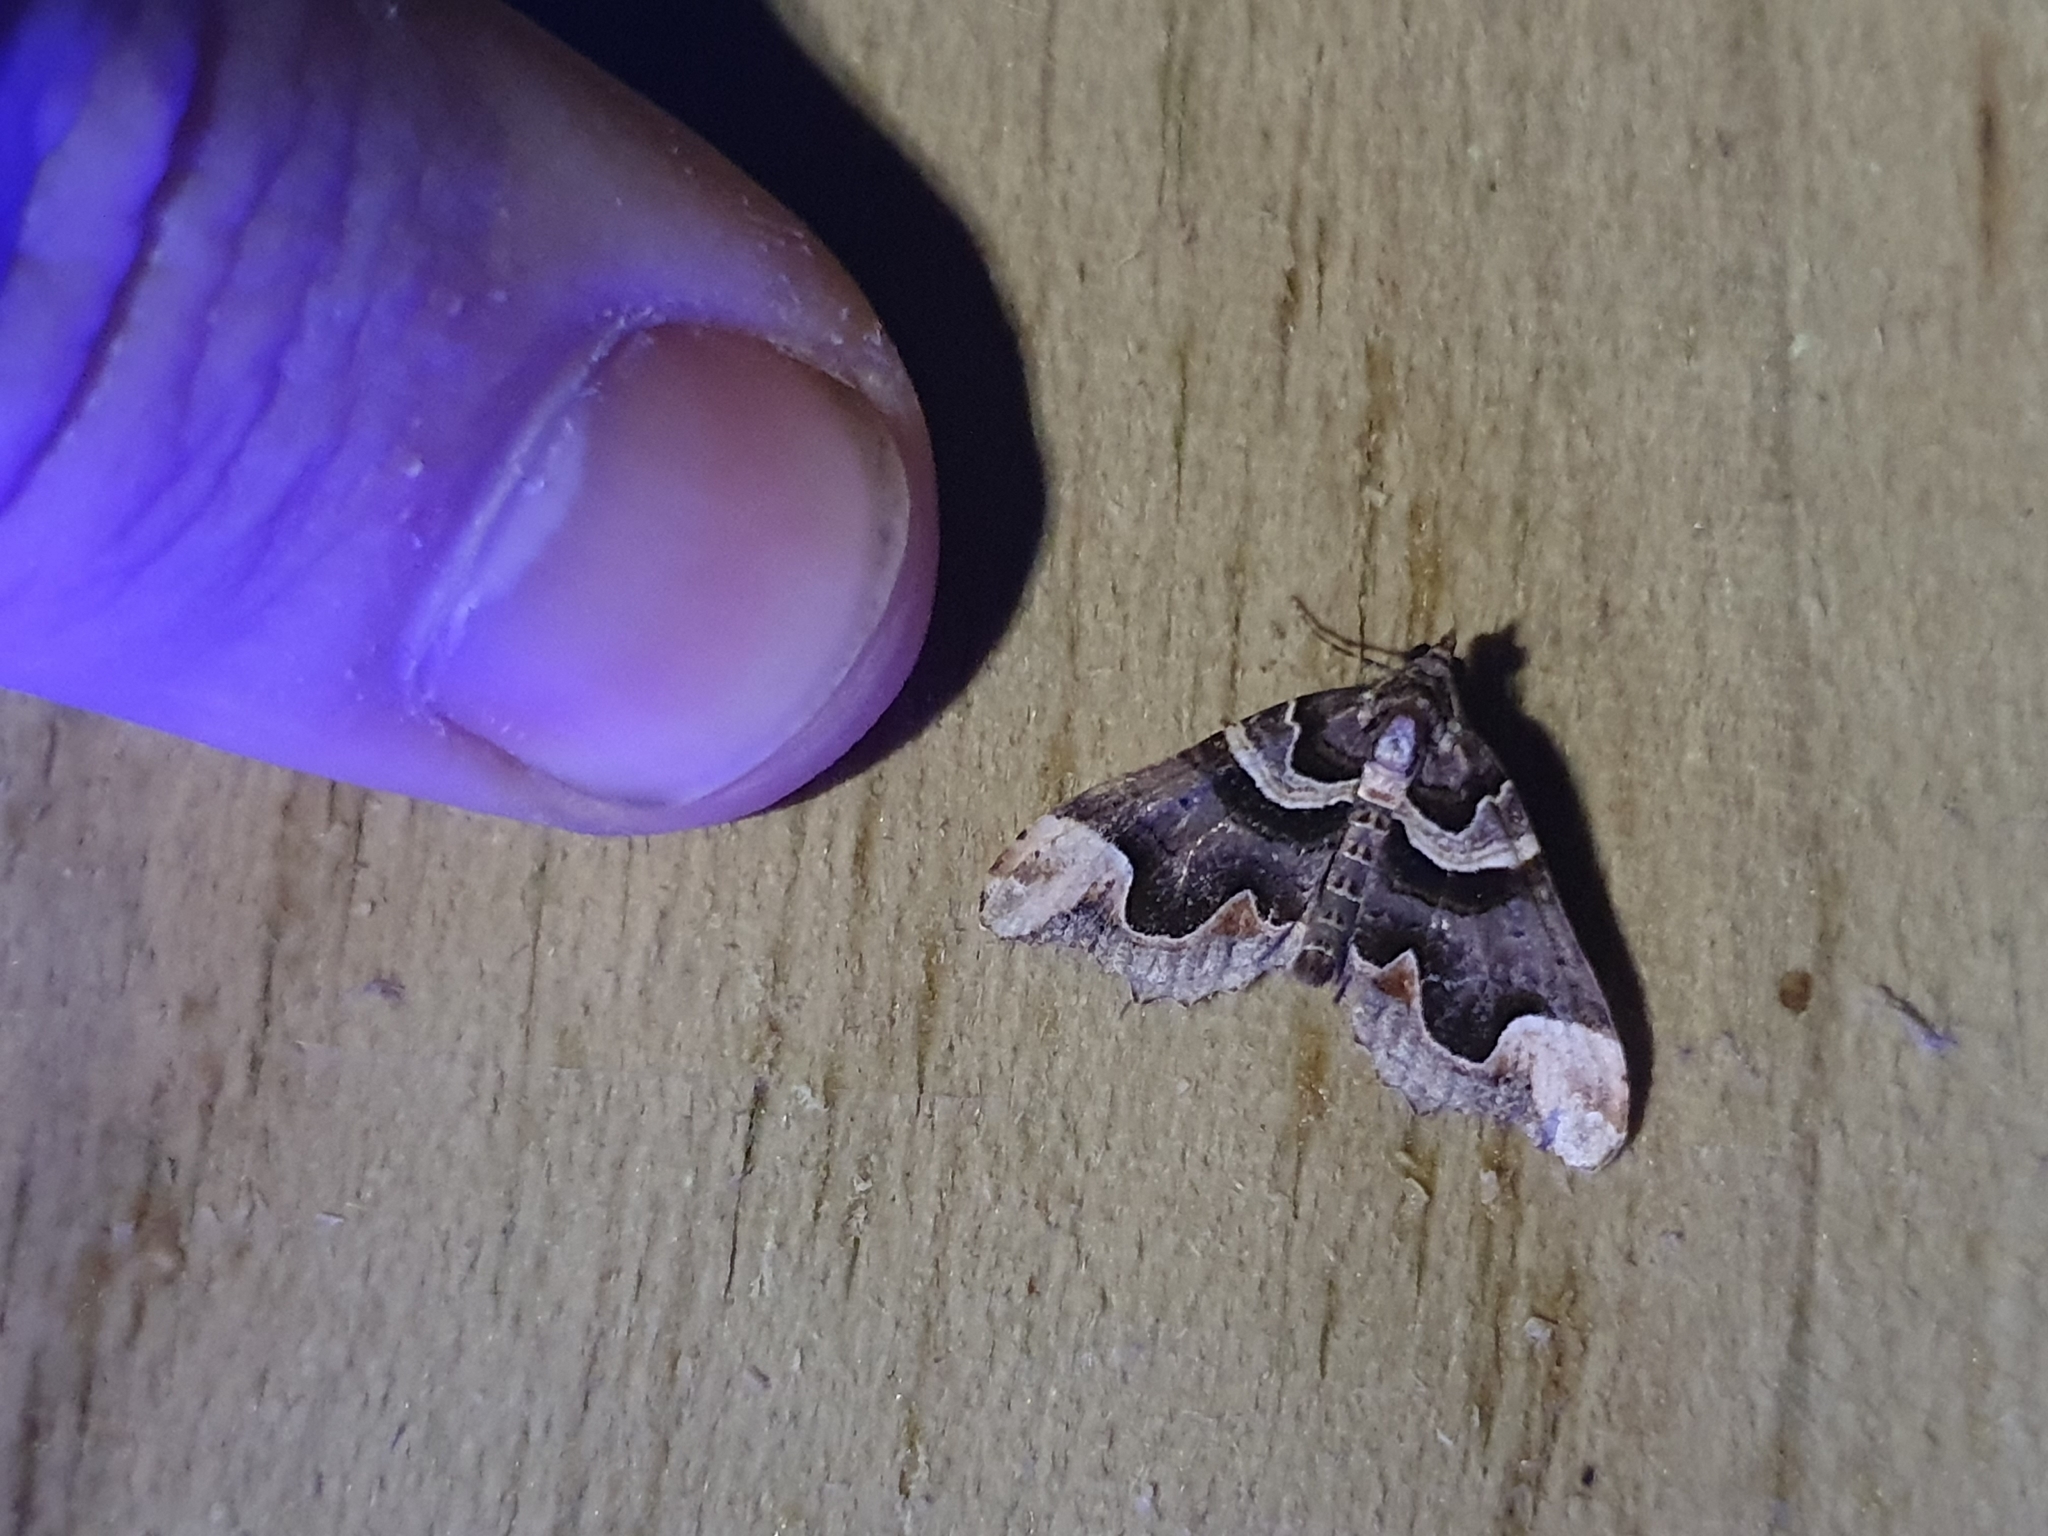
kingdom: Animalia
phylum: Arthropoda
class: Insecta
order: Lepidoptera
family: Geometridae
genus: Asaphodes
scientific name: Asaphodes chlamydota
